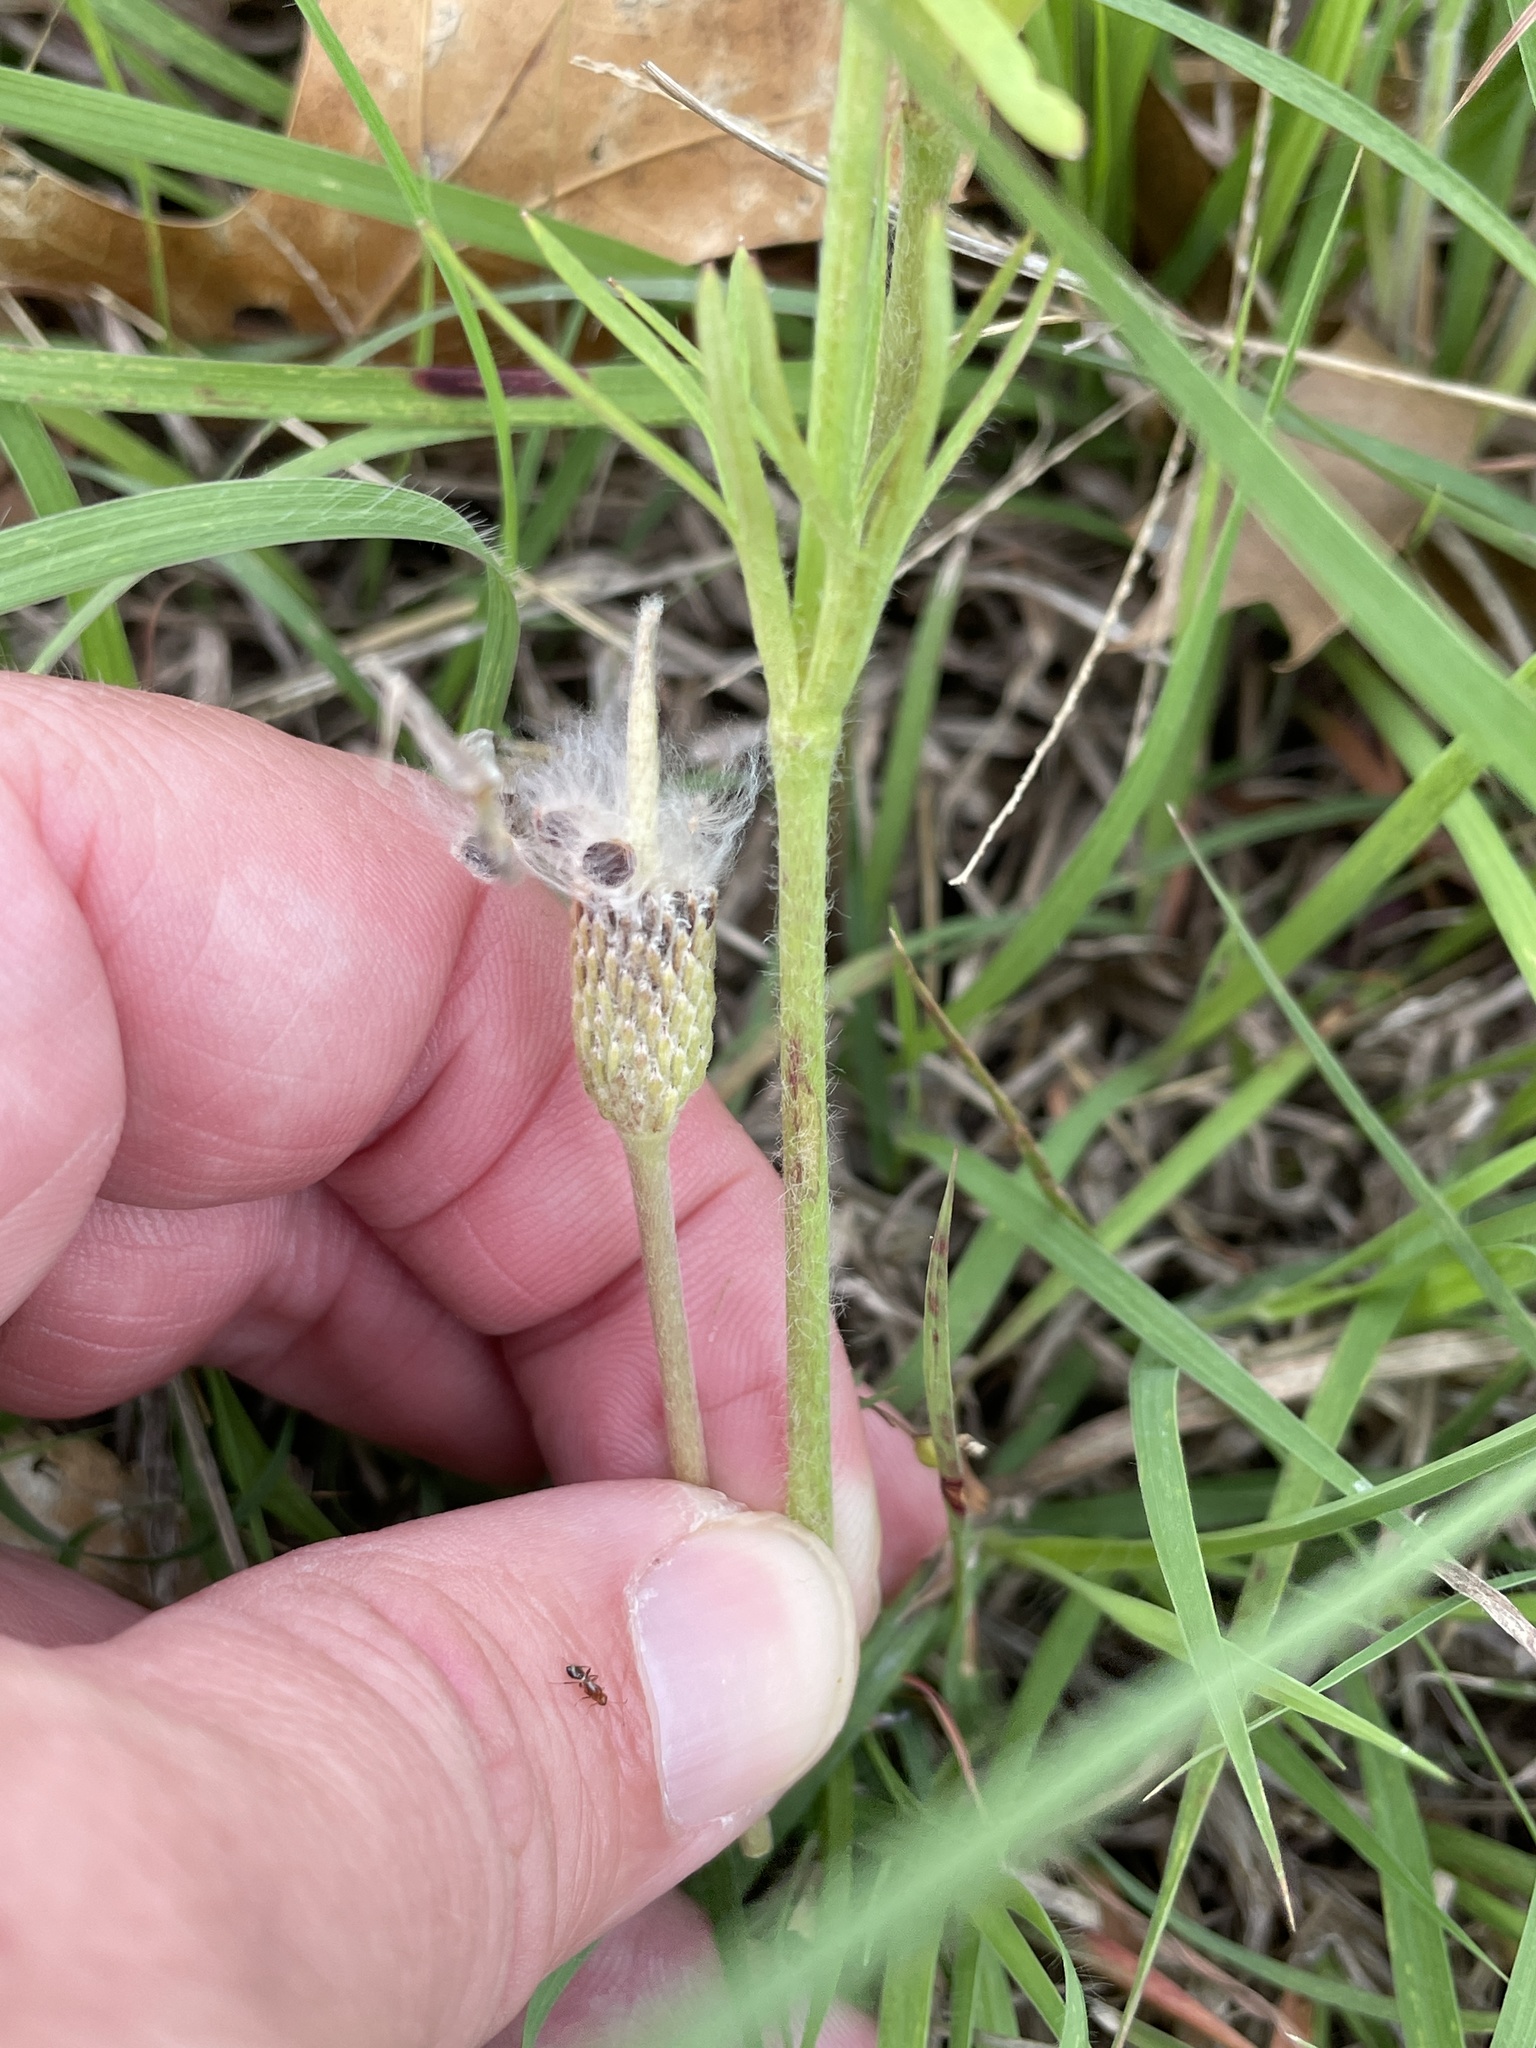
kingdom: Plantae
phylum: Tracheophyta
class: Magnoliopsida
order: Ranunculales
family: Ranunculaceae
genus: Anemone
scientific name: Anemone berlandieri
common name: Ten-petal anemone
